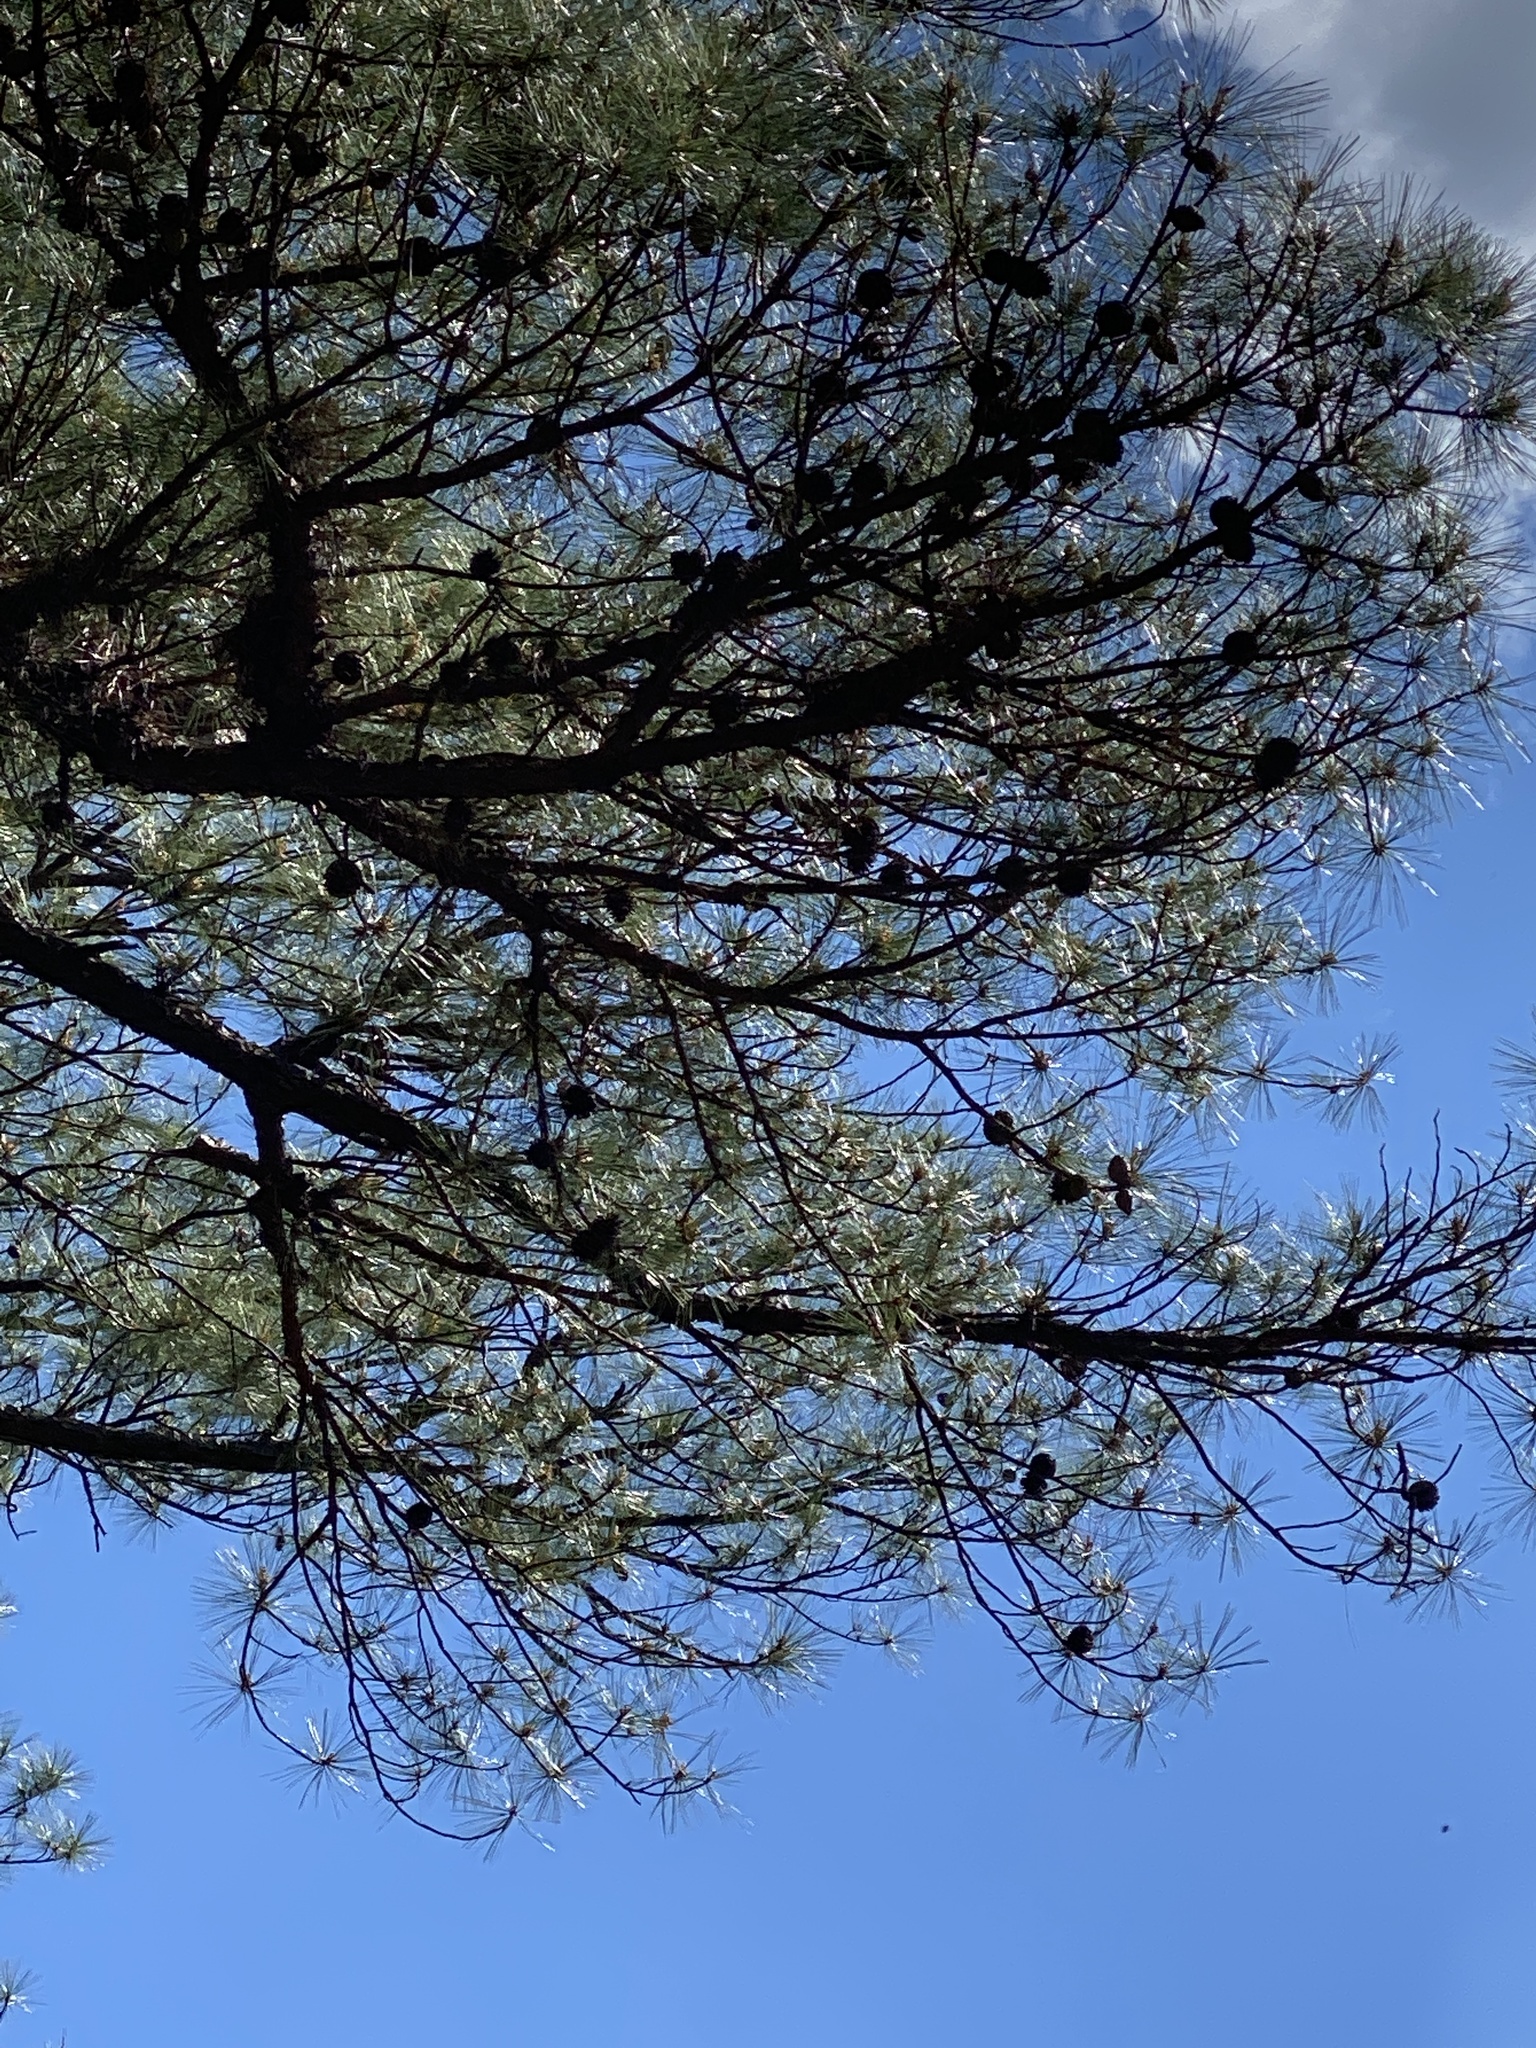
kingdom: Plantae
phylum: Tracheophyta
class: Pinopsida
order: Pinales
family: Pinaceae
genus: Pinus
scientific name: Pinus serotina
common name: Marsh pine
